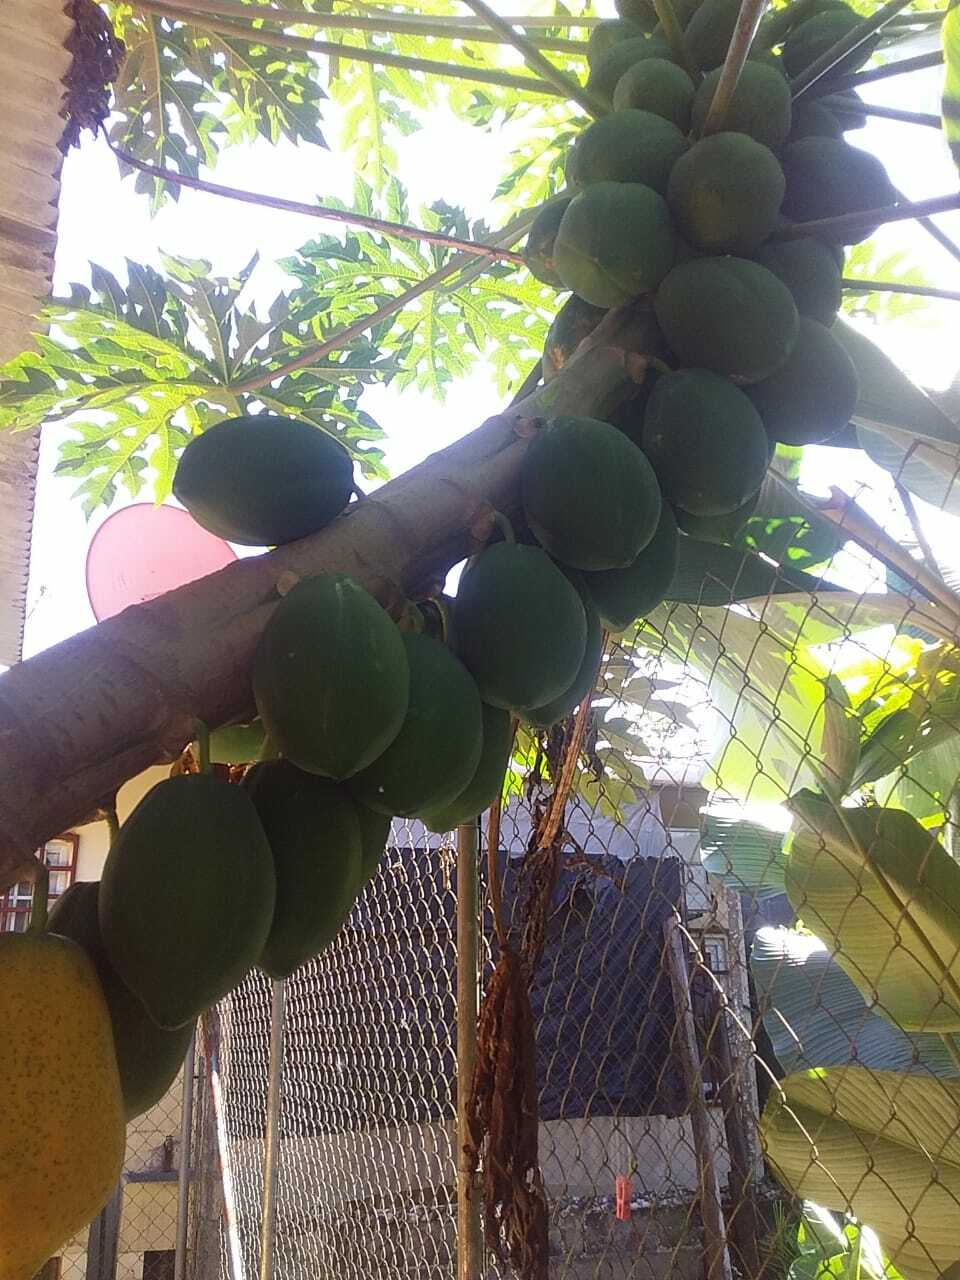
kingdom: Plantae
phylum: Tracheophyta
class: Magnoliopsida
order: Brassicales
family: Caricaceae
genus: Carica
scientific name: Carica papaya
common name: Papaya
